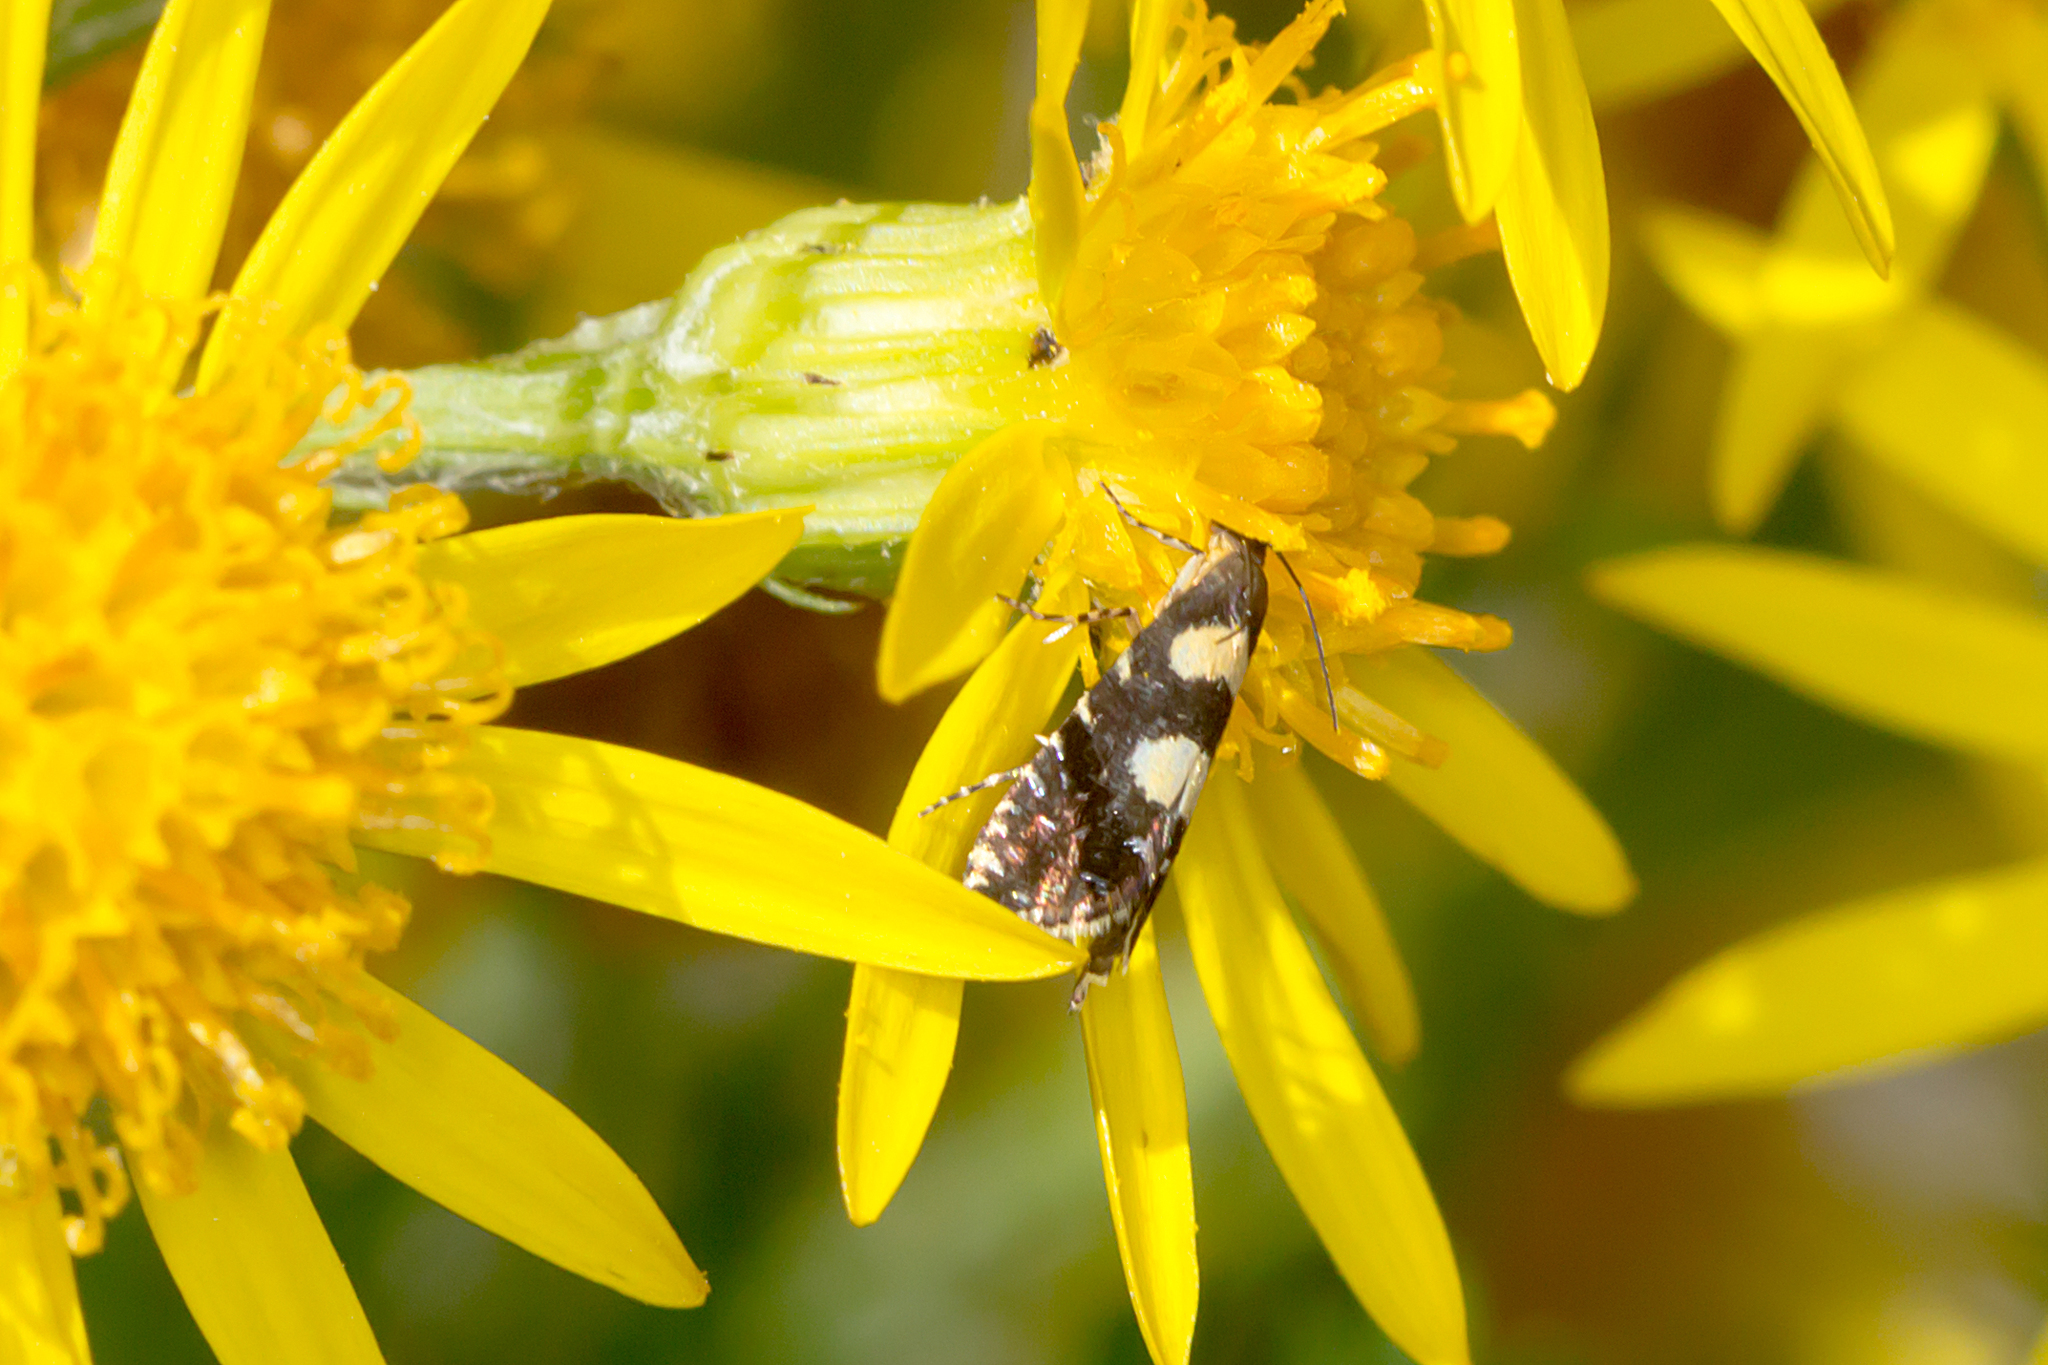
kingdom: Animalia
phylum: Arthropoda
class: Insecta
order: Lepidoptera
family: Glyphipterigidae
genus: Glyphipterix
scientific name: Glyphipterix chrysoplanetis
